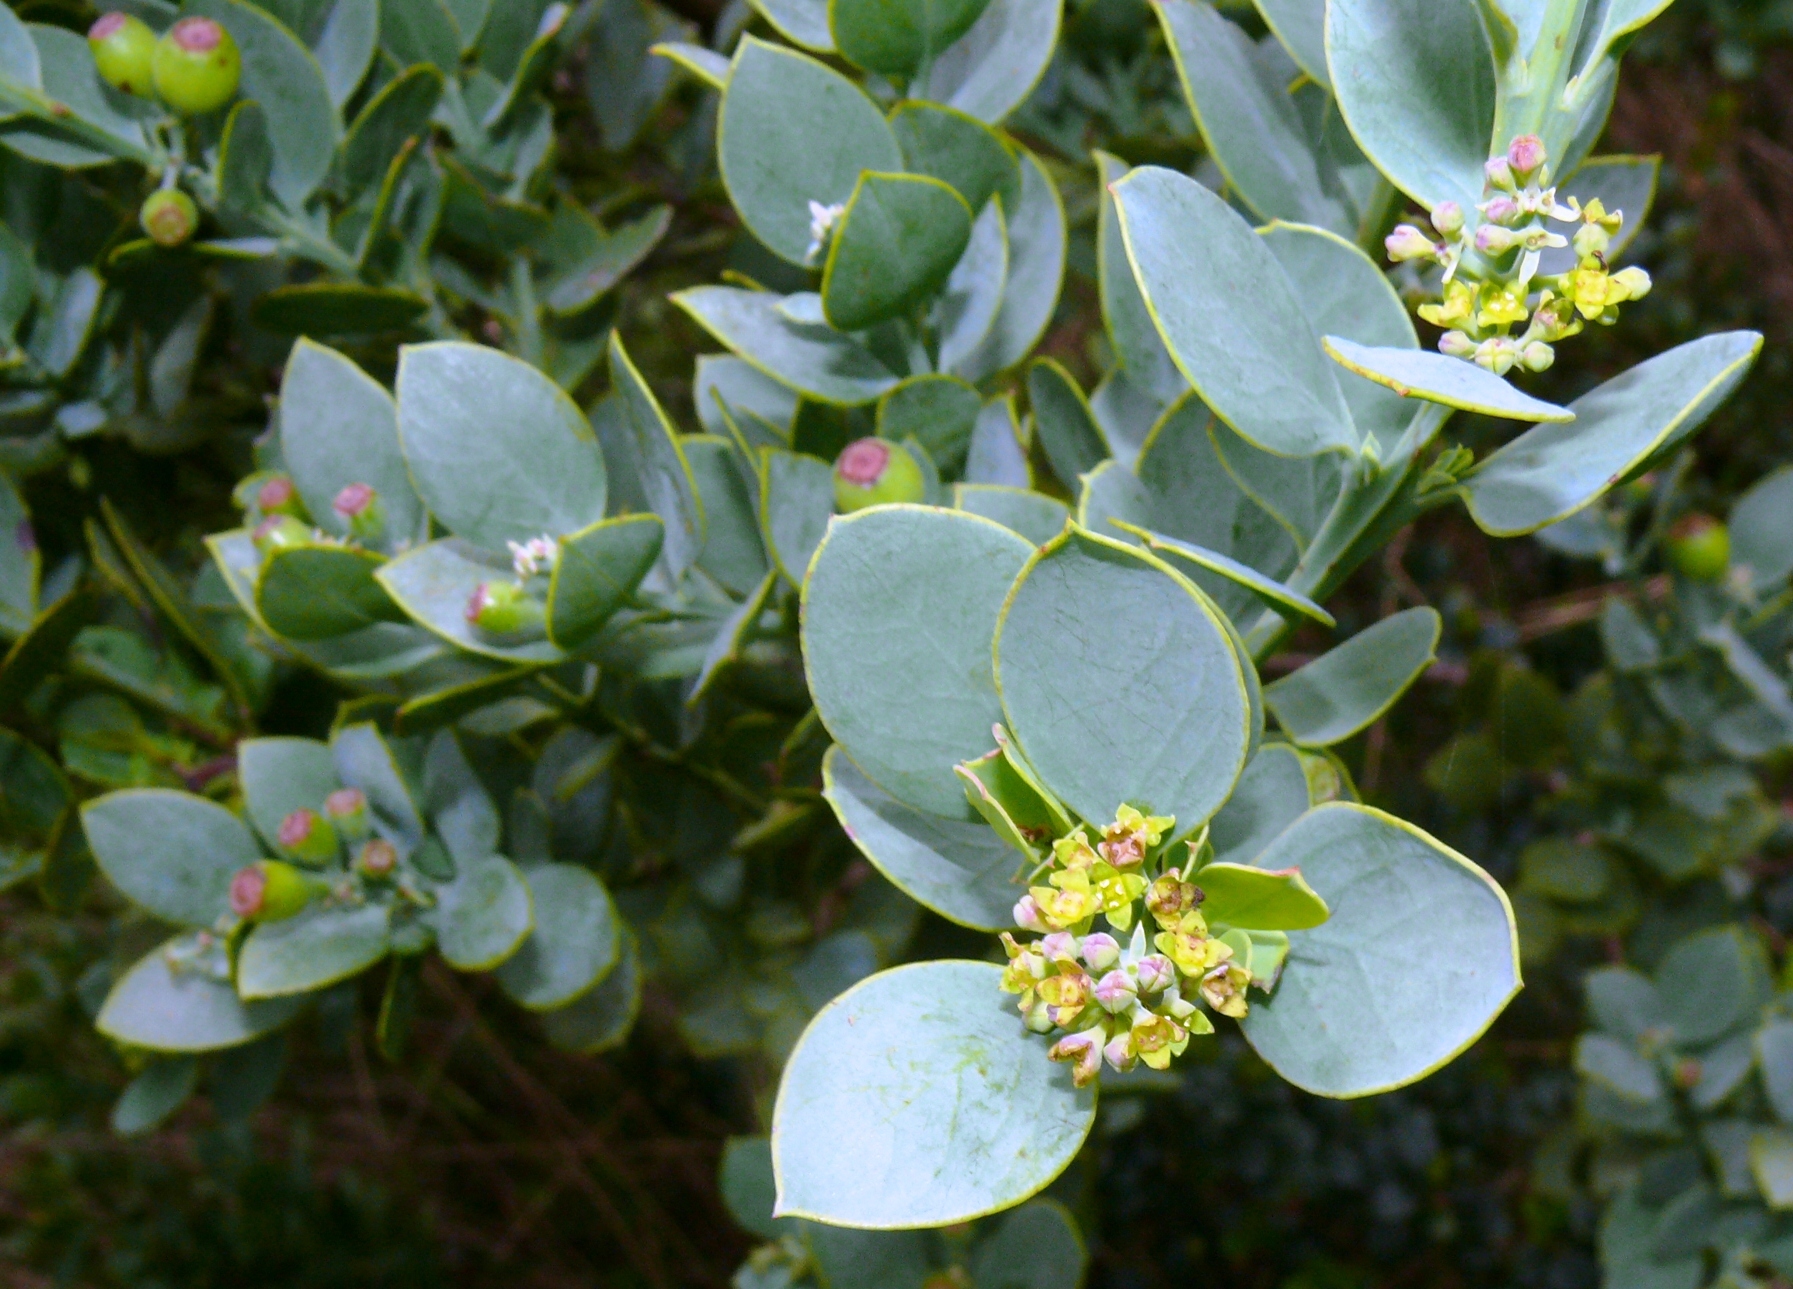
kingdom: Plantae
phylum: Tracheophyta
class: Magnoliopsida
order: Santalales
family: Santalaceae
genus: Osyris
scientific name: Osyris compressa
